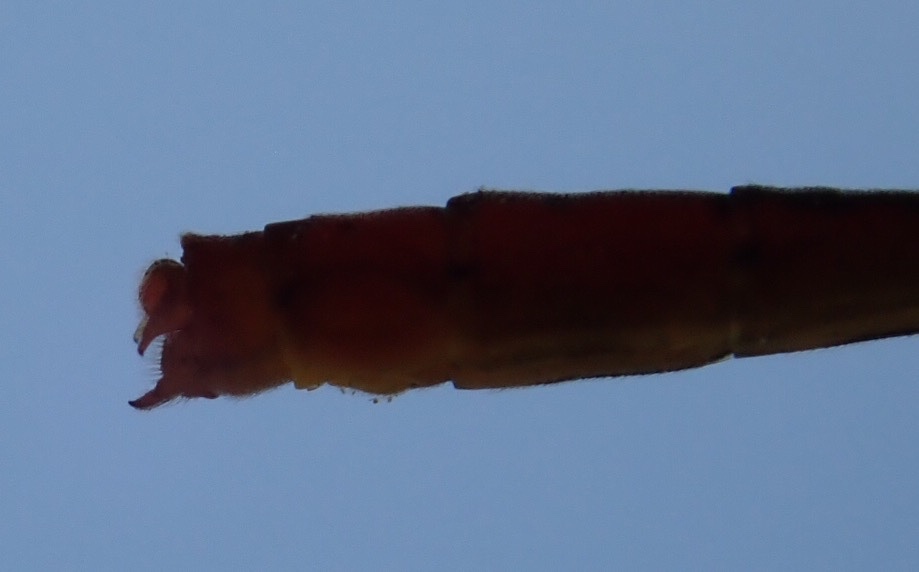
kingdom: Animalia
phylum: Arthropoda
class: Insecta
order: Odonata
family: Coenagrionidae
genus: Agriocnemis
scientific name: Agriocnemis gratiosa
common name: Gracious wisp
